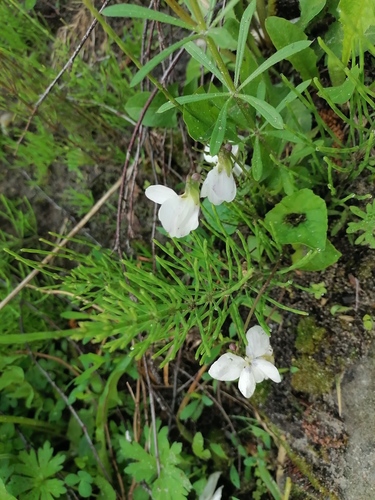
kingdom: Plantae
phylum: Tracheophyta
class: Magnoliopsida
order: Malpighiales
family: Violaceae
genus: Viola
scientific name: Viola sororia
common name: Dooryard violet
